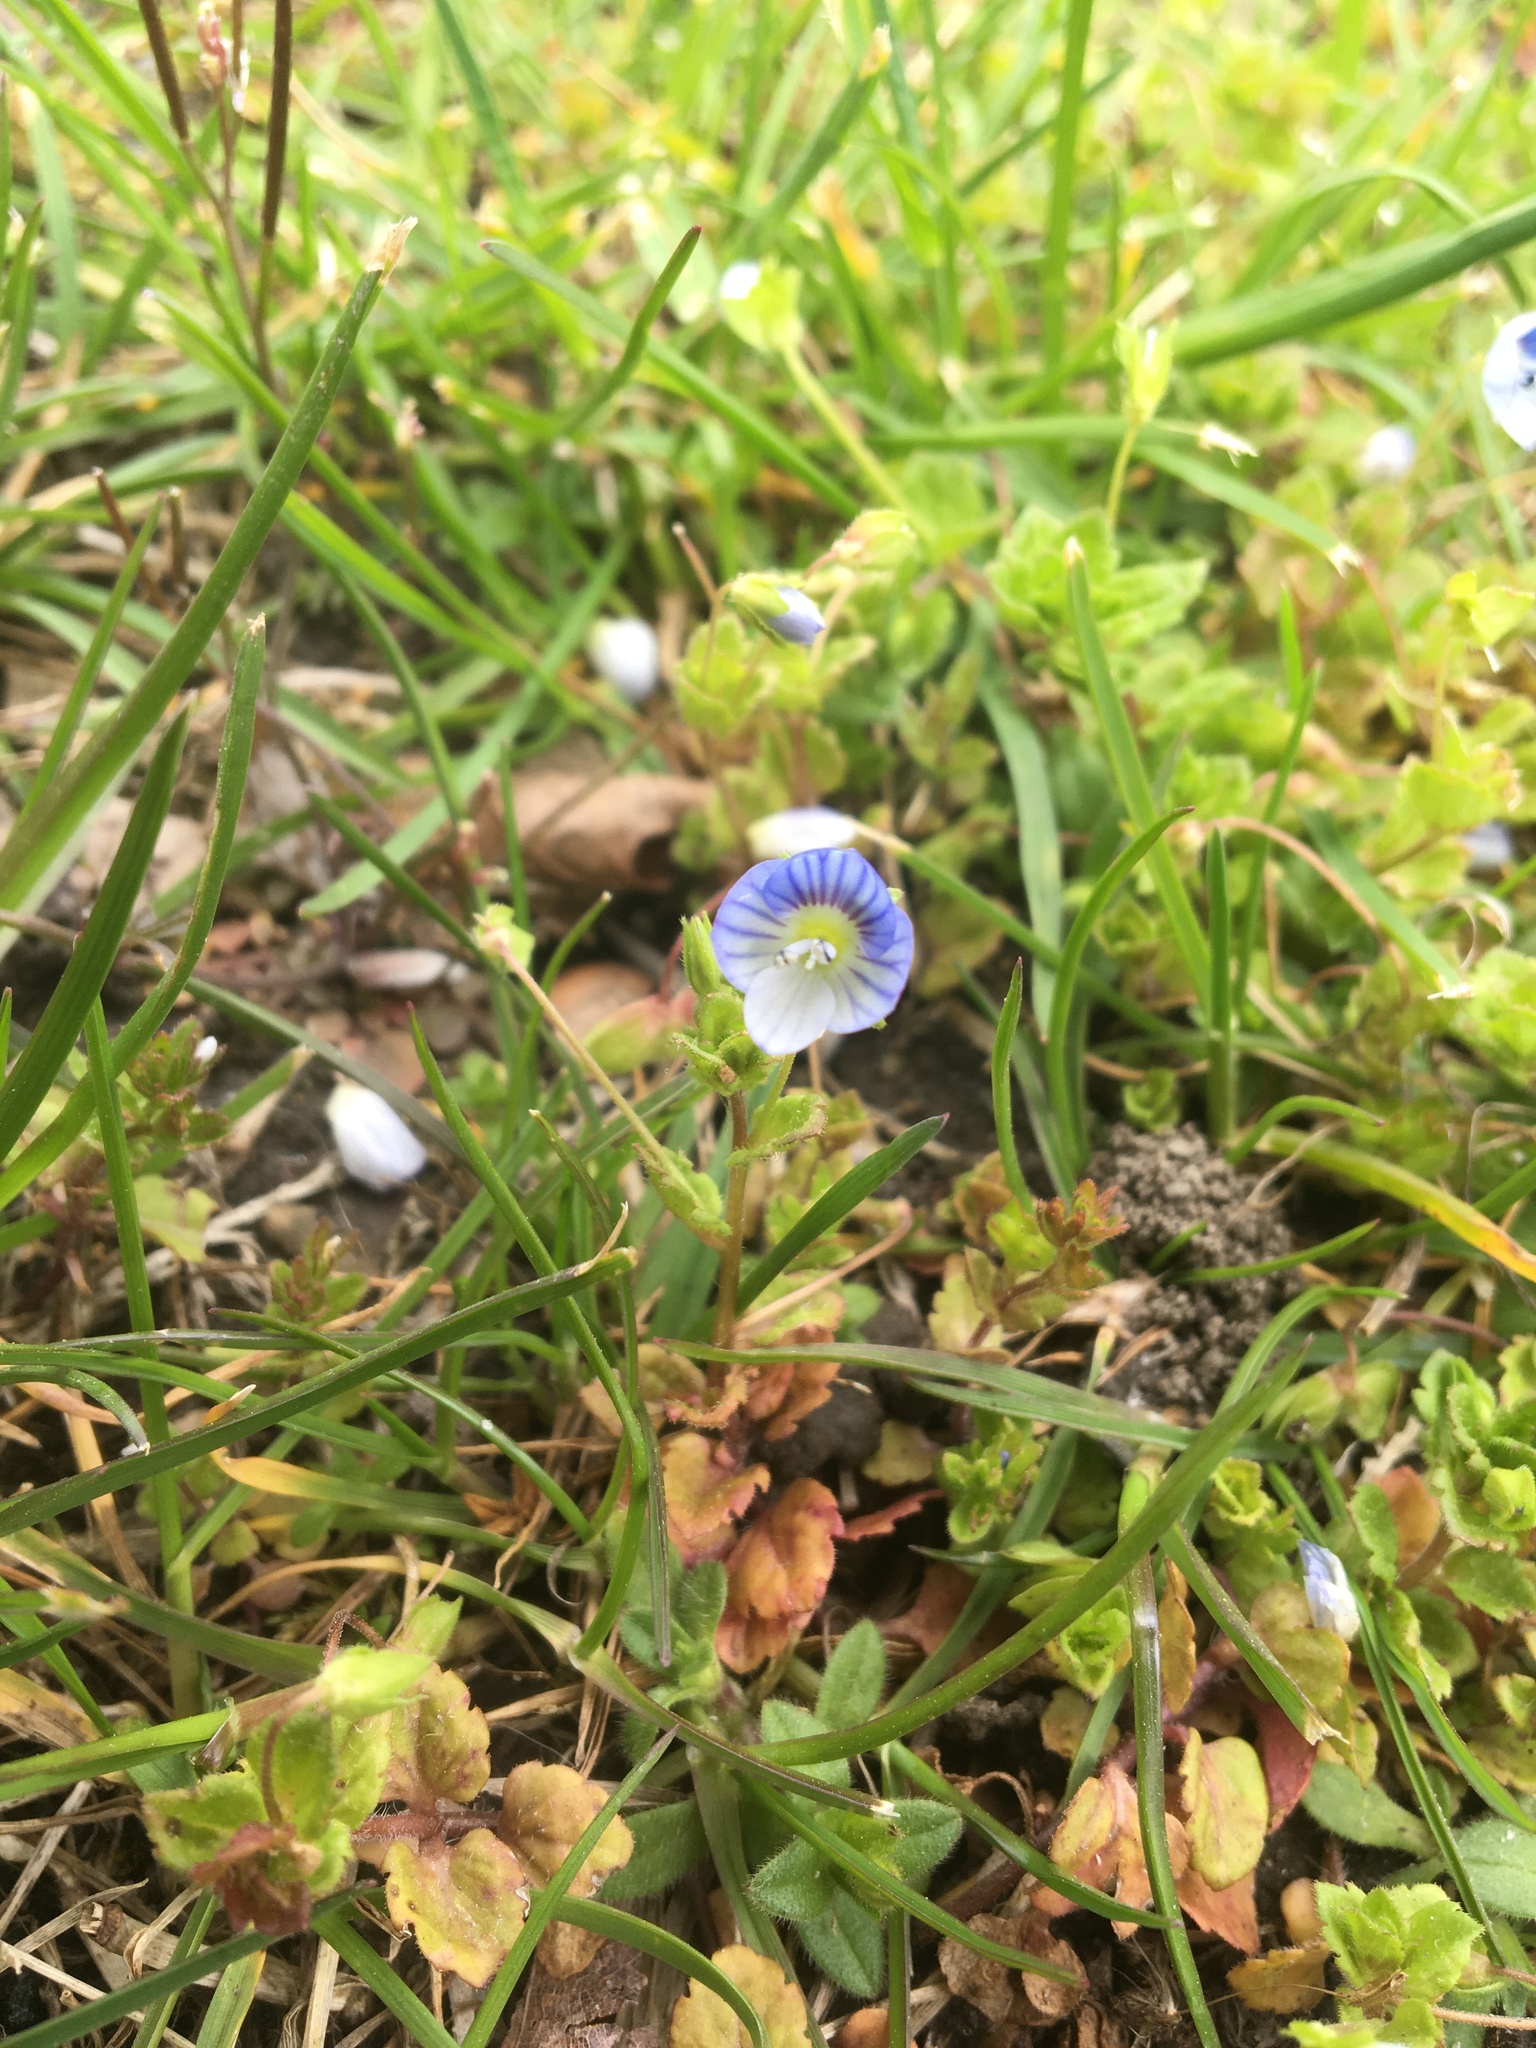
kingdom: Plantae
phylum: Tracheophyta
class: Magnoliopsida
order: Lamiales
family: Plantaginaceae
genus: Veronica
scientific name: Veronica persica
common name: Common field-speedwell
